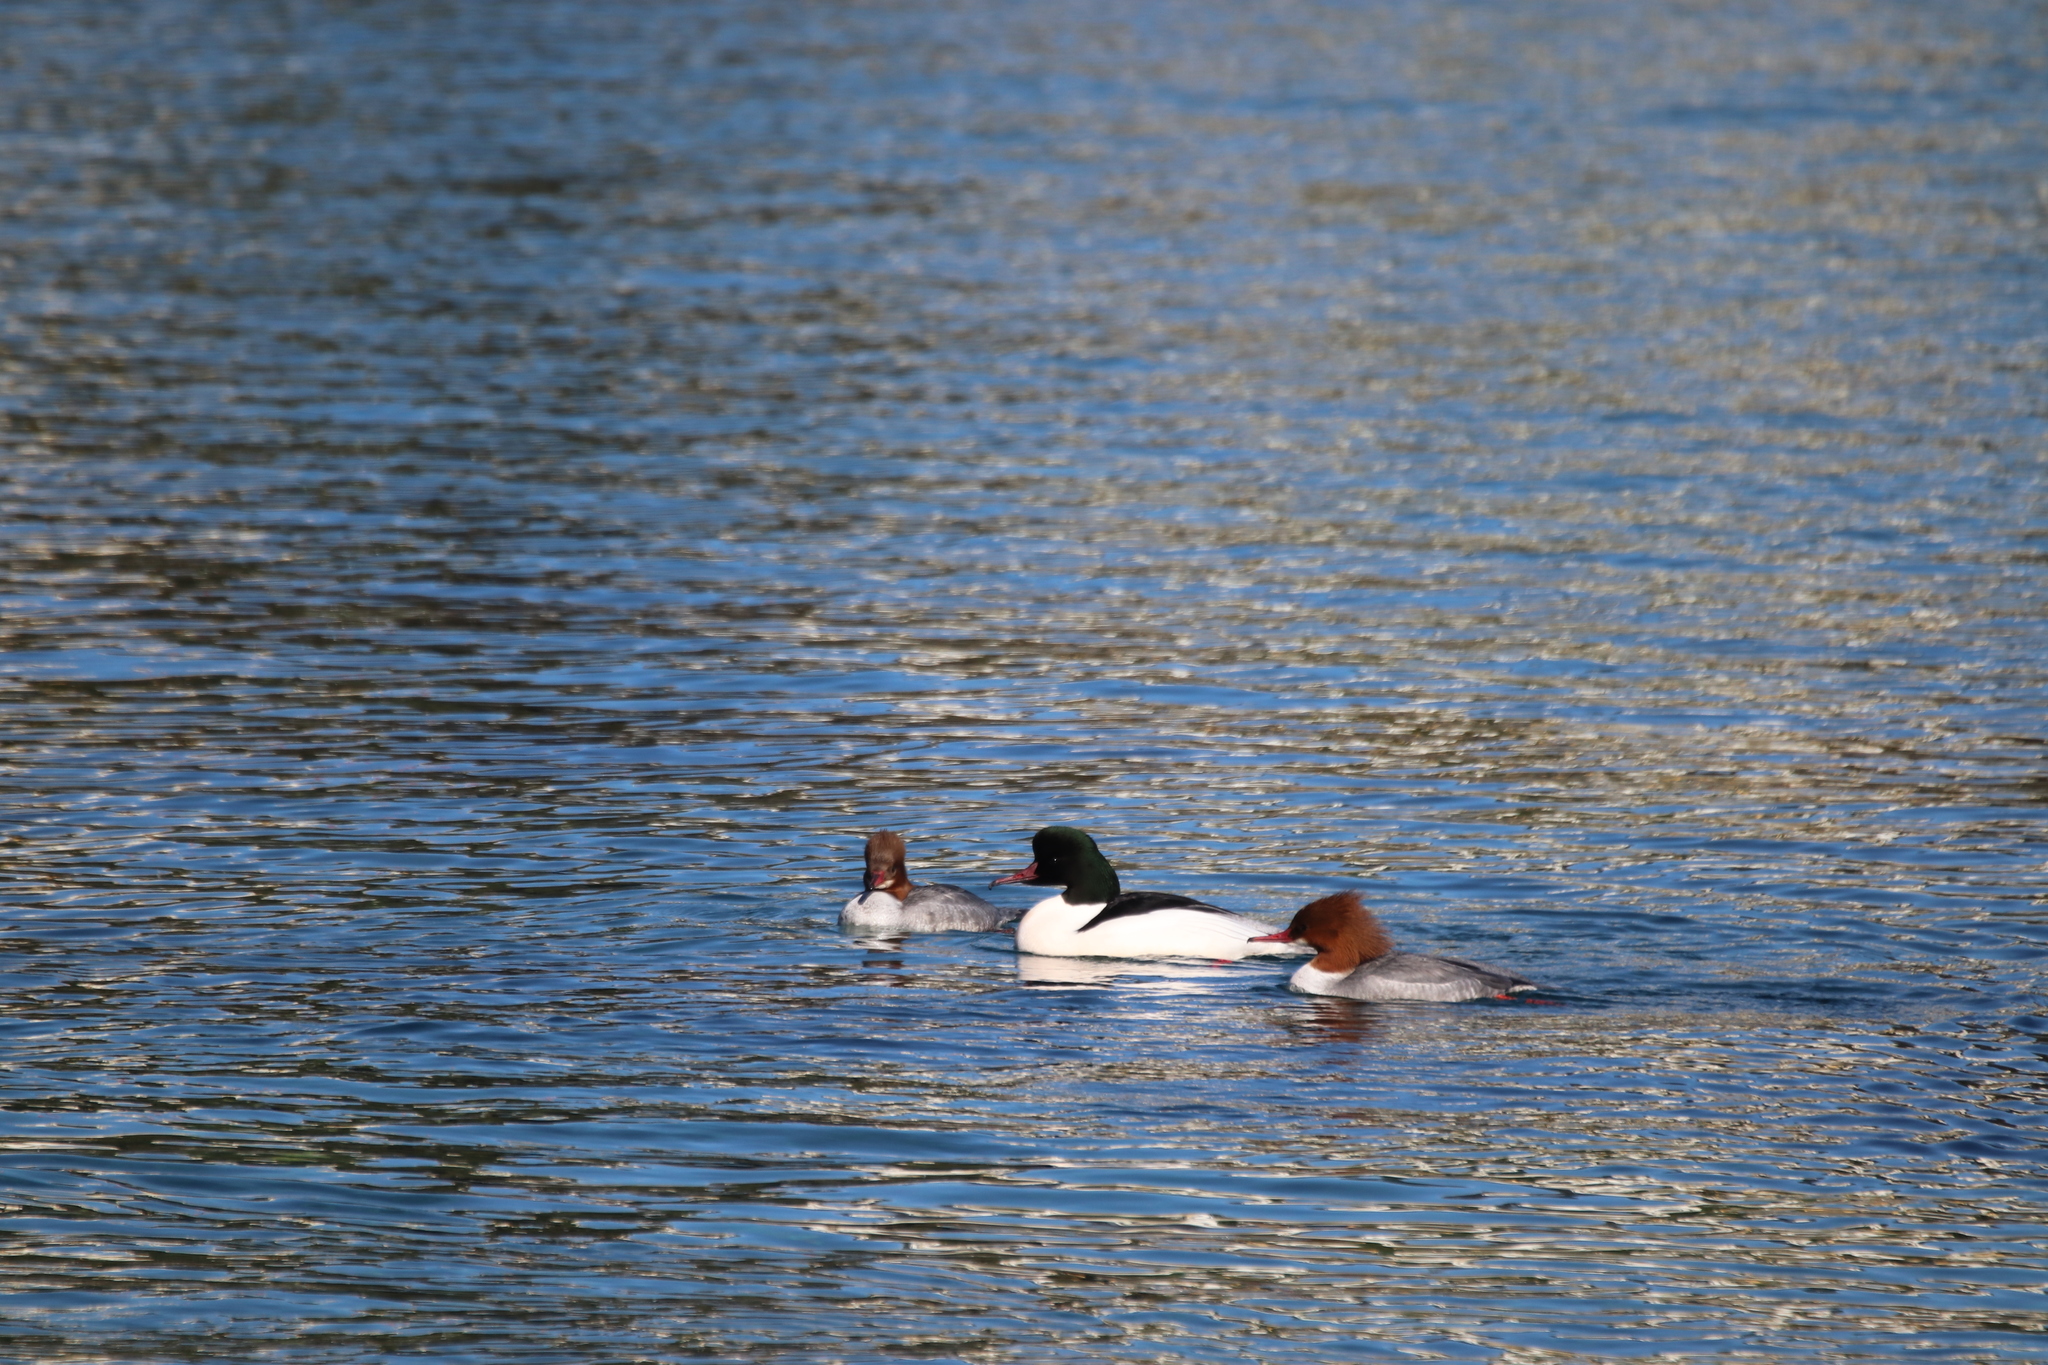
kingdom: Animalia
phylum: Chordata
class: Aves
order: Anseriformes
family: Anatidae
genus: Mergus
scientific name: Mergus merganser
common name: Common merganser
